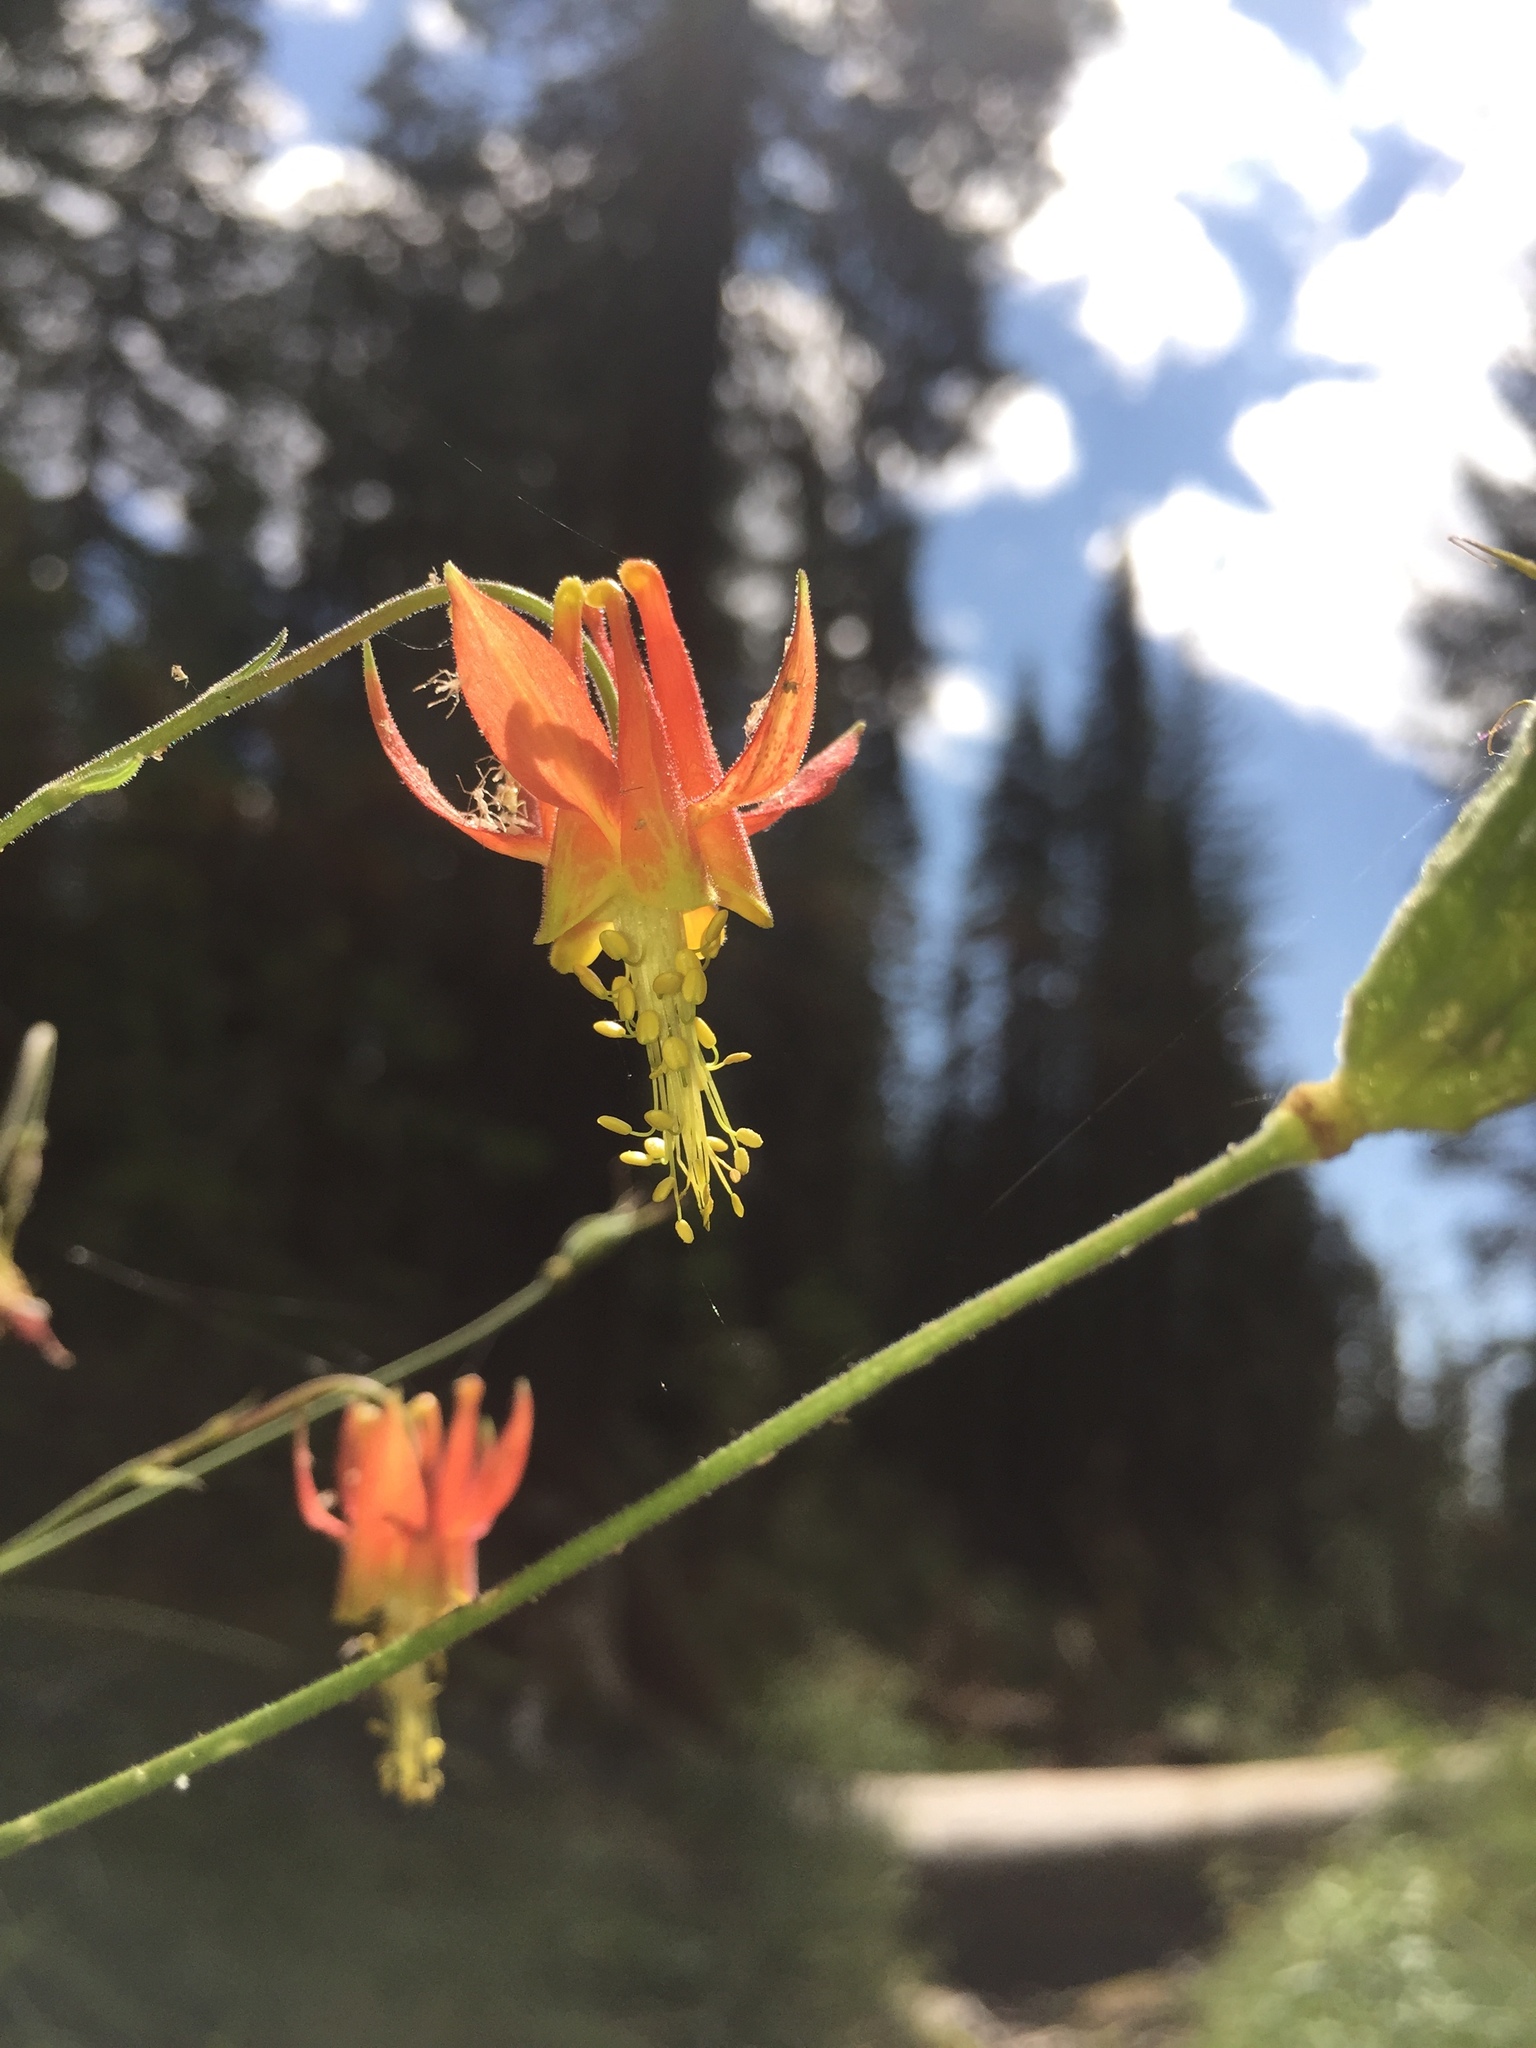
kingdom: Plantae
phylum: Tracheophyta
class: Magnoliopsida
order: Ranunculales
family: Ranunculaceae
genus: Aquilegia
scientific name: Aquilegia formosa
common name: Sitka columbine
